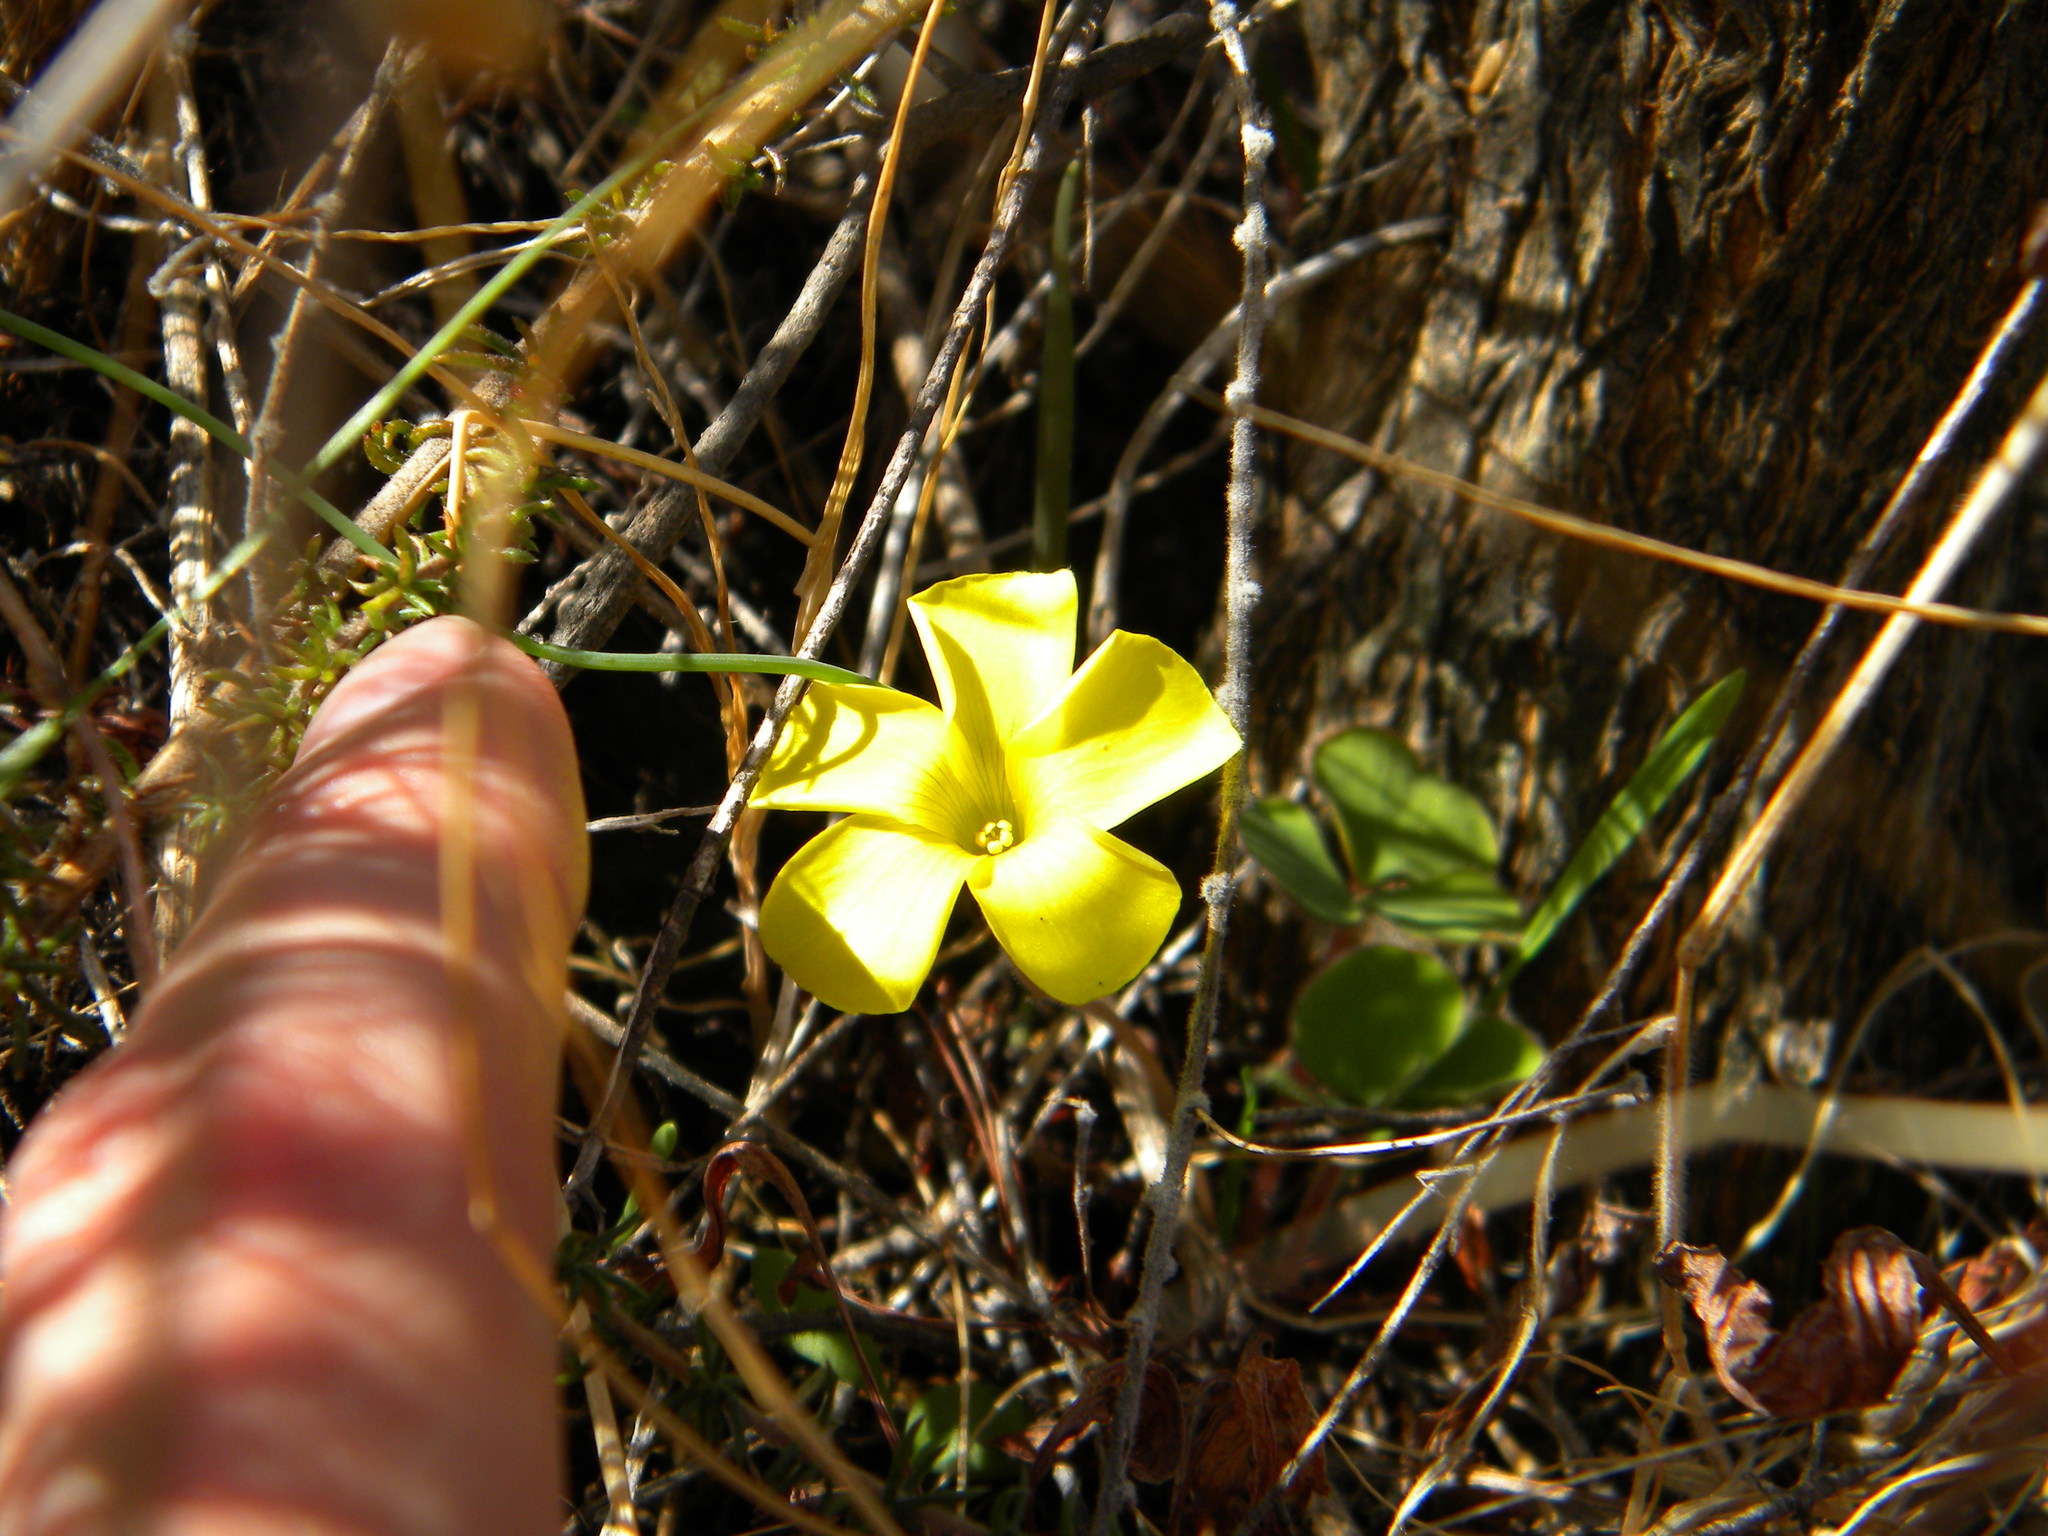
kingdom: Plantae
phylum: Tracheophyta
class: Magnoliopsida
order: Oxalidales
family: Oxalidaceae
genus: Oxalis
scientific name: Oxalis luteola
